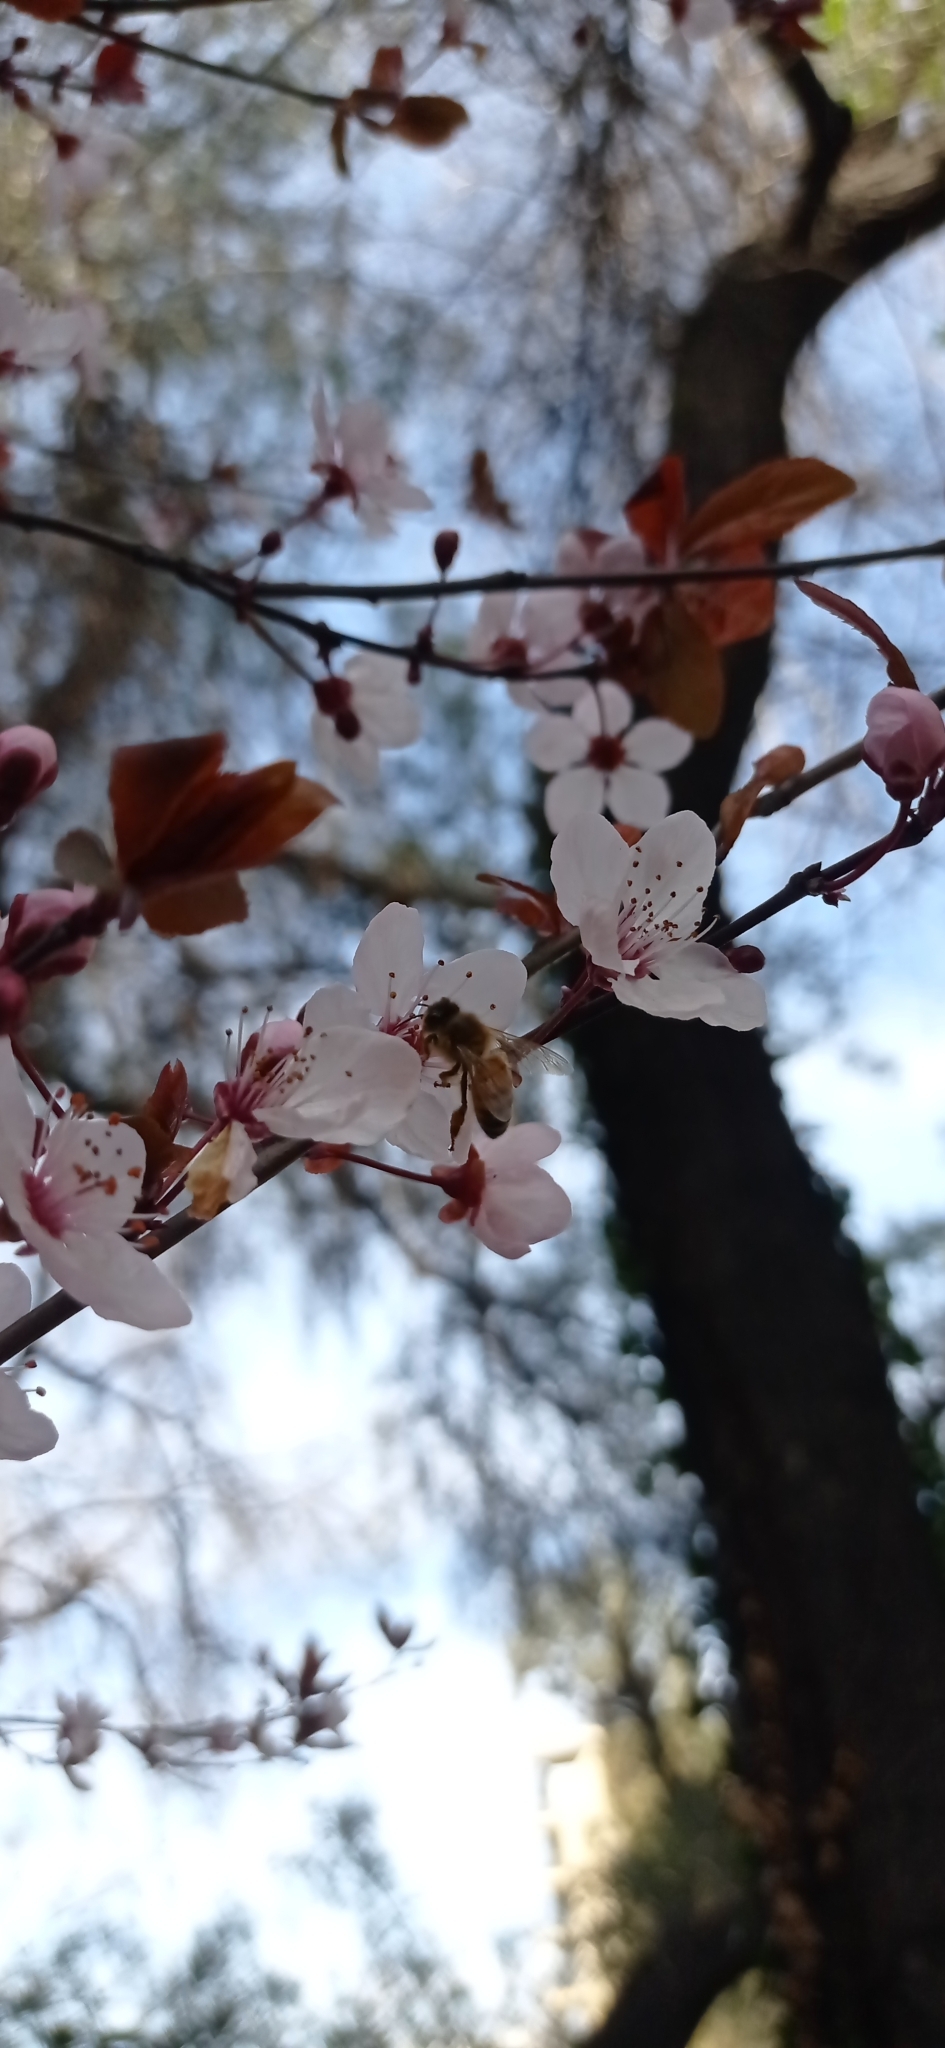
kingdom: Animalia
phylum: Arthropoda
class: Insecta
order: Hymenoptera
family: Apidae
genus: Apis
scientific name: Apis mellifera
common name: Honey bee
